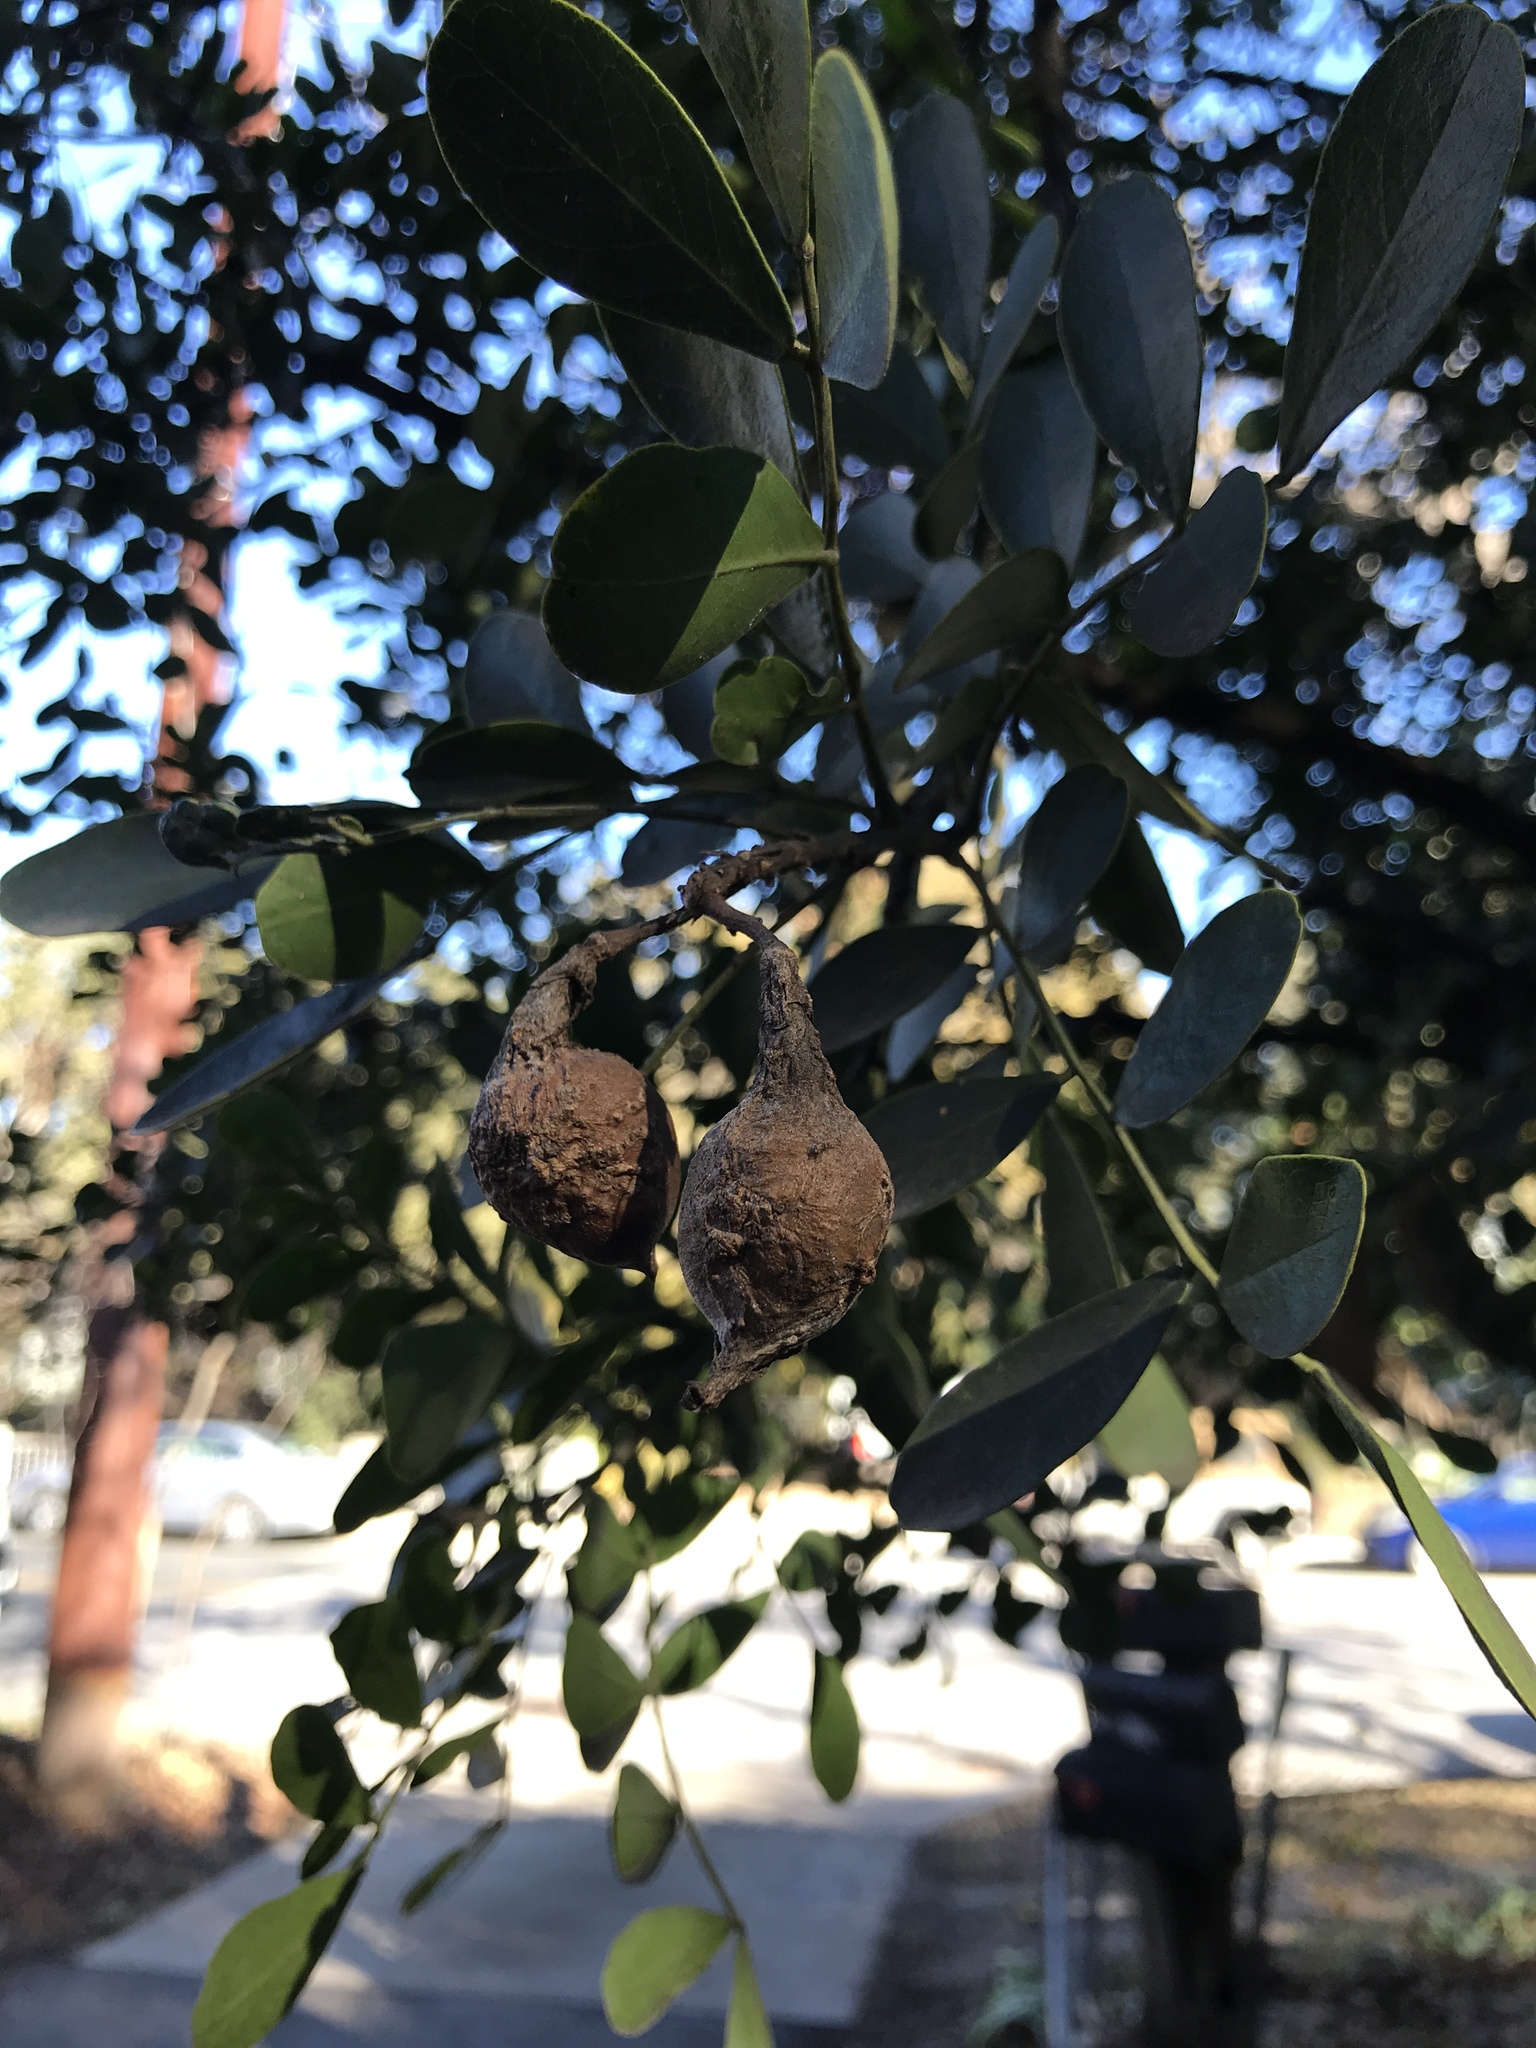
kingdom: Plantae
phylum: Tracheophyta
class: Magnoliopsida
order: Fabales
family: Fabaceae
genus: Dermatophyllum
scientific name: Dermatophyllum secundiflorum
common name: Texas-mountain-laurel
